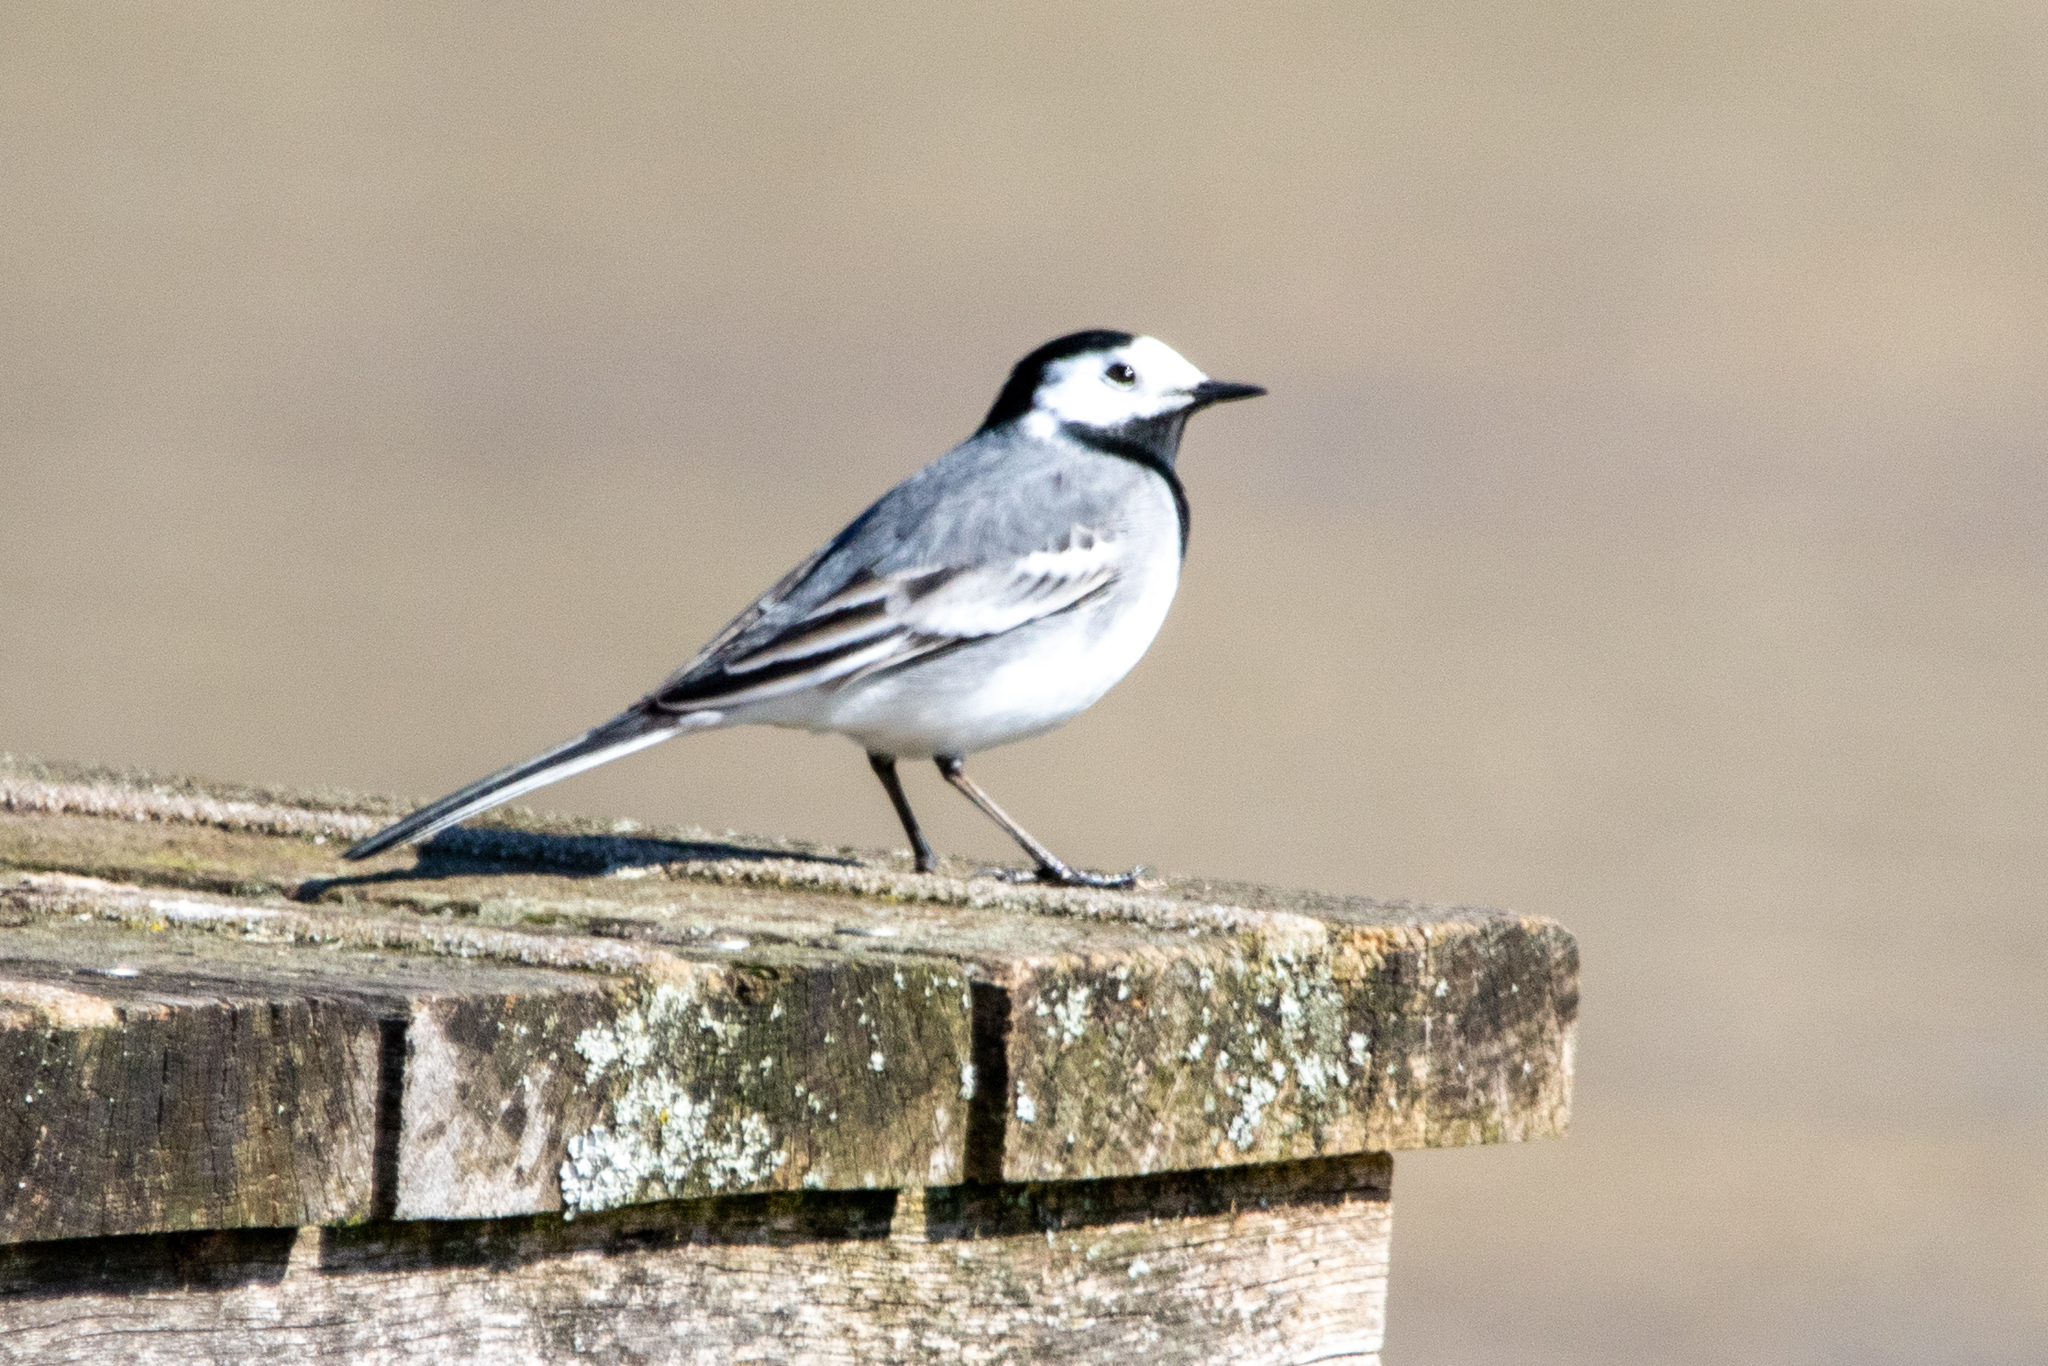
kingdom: Animalia
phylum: Chordata
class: Aves
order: Passeriformes
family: Motacillidae
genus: Motacilla
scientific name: Motacilla alba
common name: White wagtail
